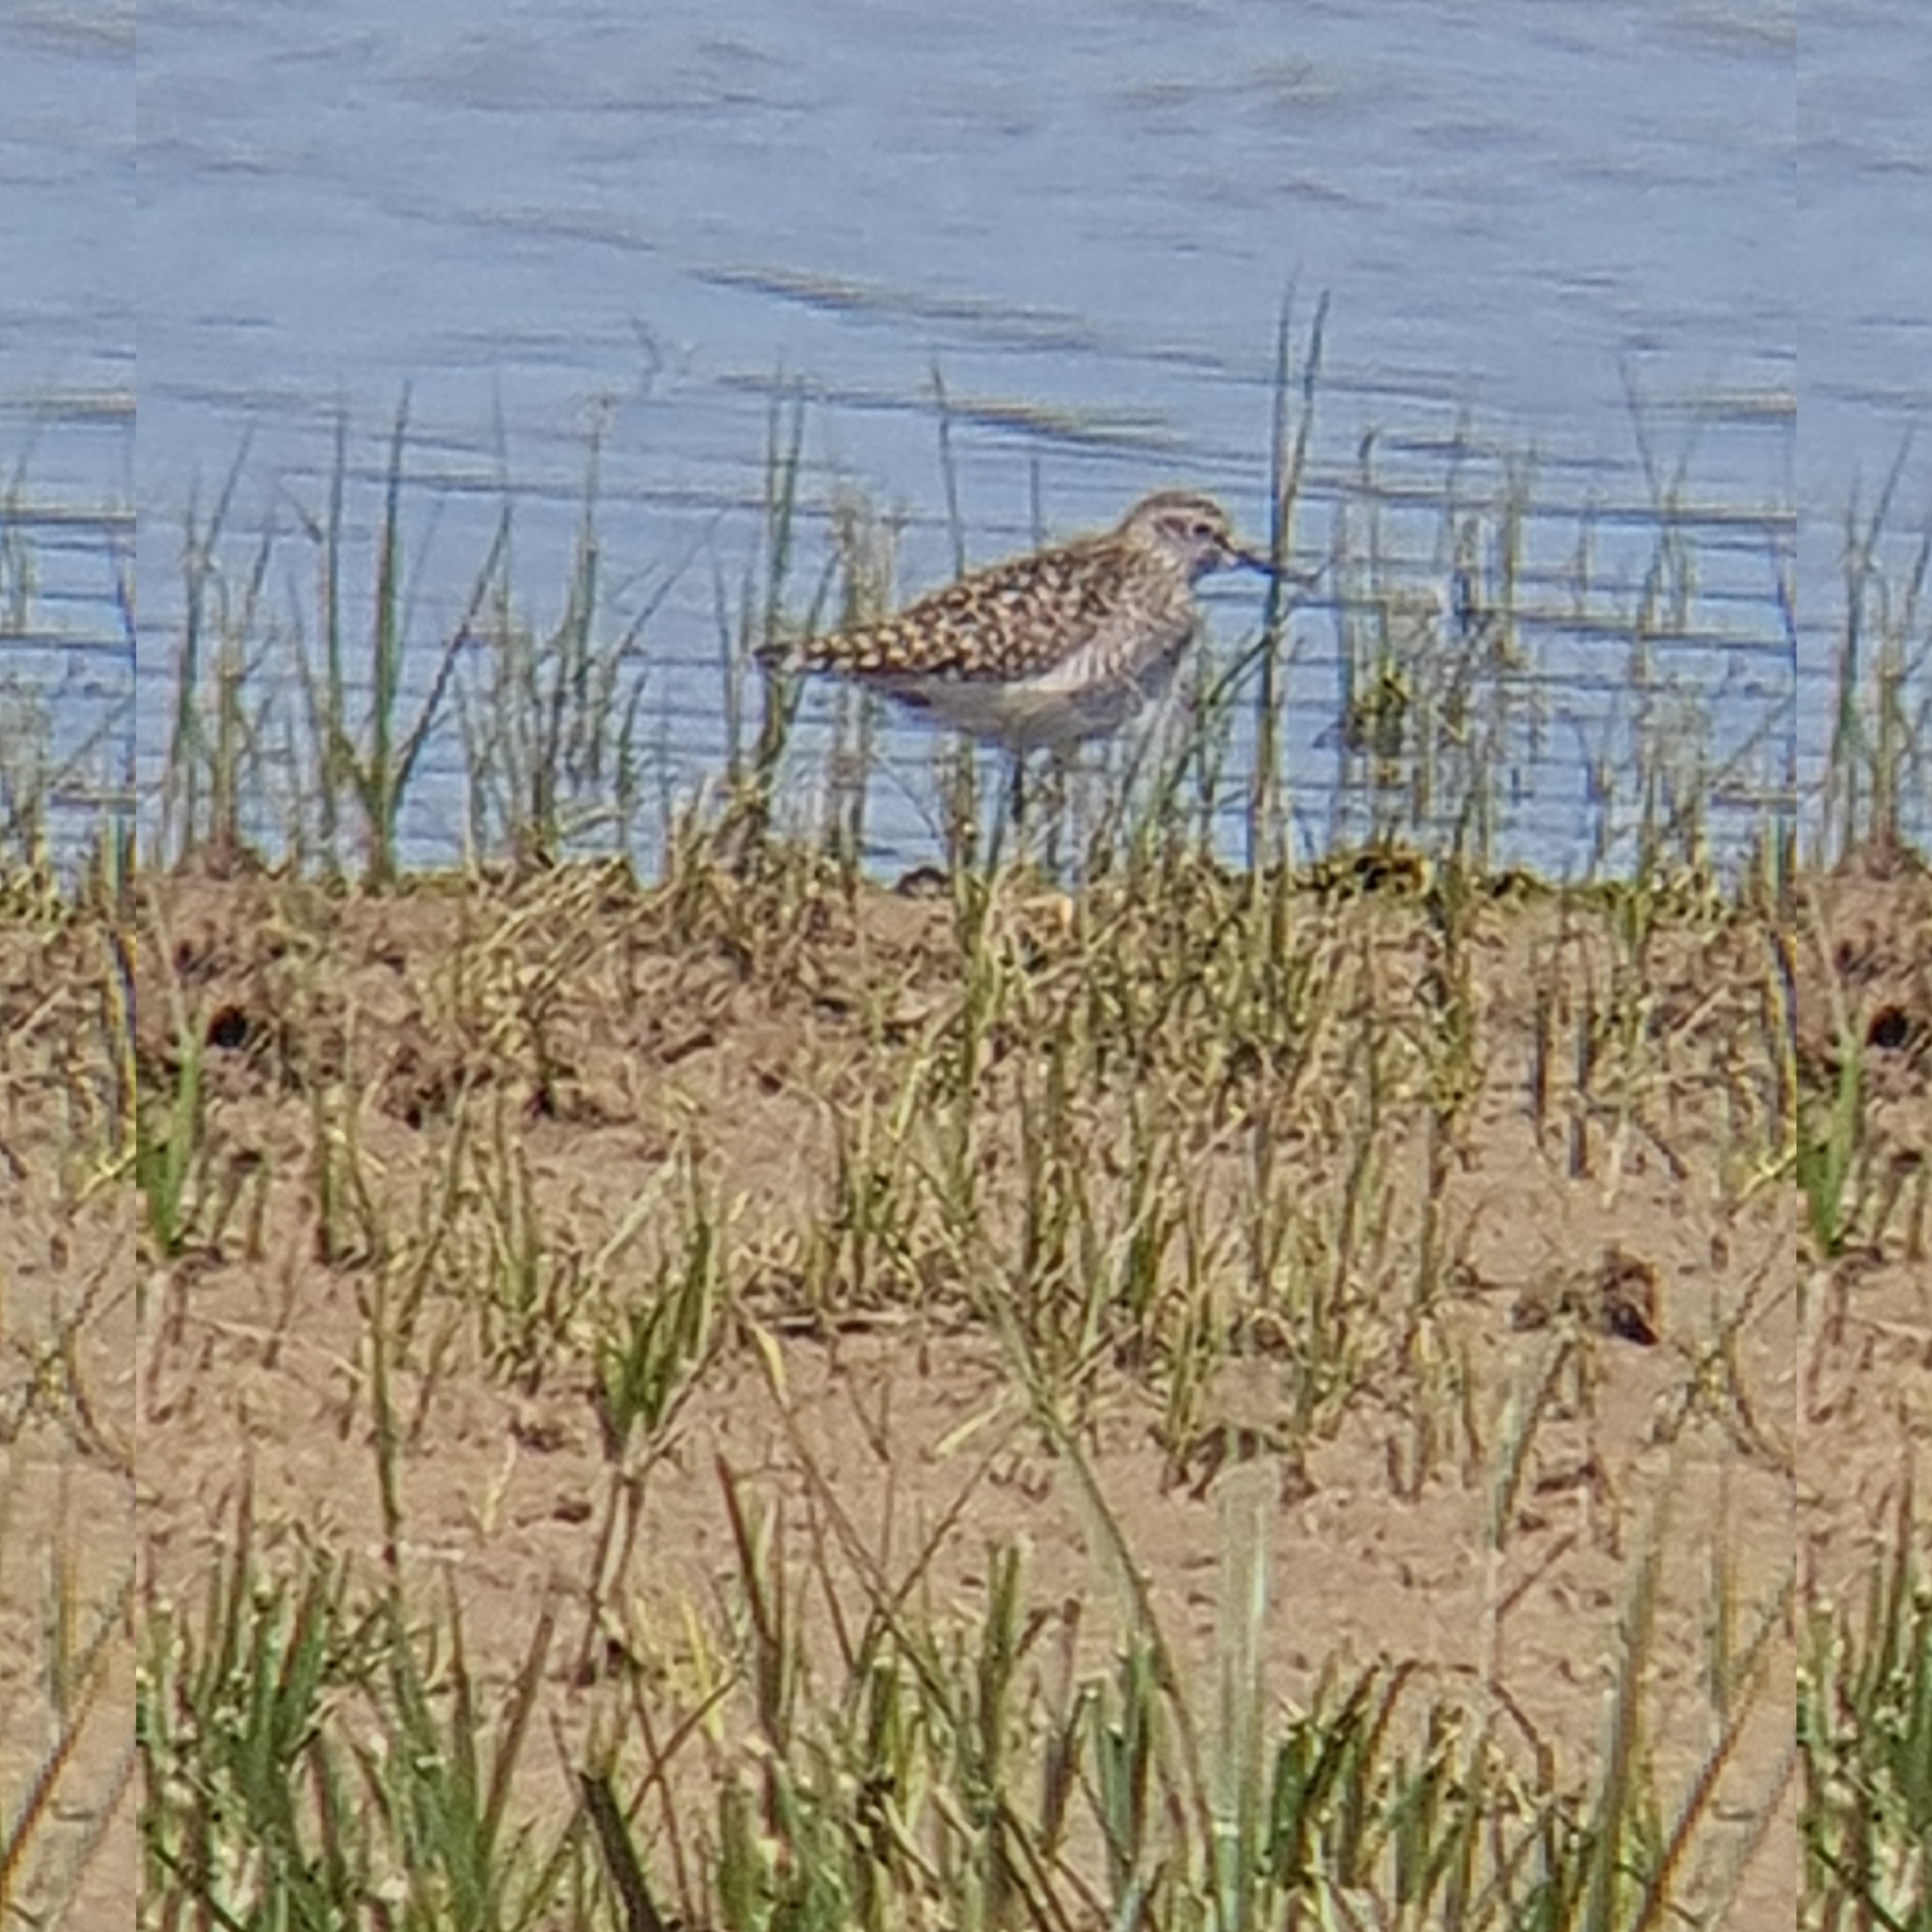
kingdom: Animalia
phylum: Chordata
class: Aves
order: Charadriiformes
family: Scolopacidae
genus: Tringa
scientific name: Tringa glareola
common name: Wood sandpiper
